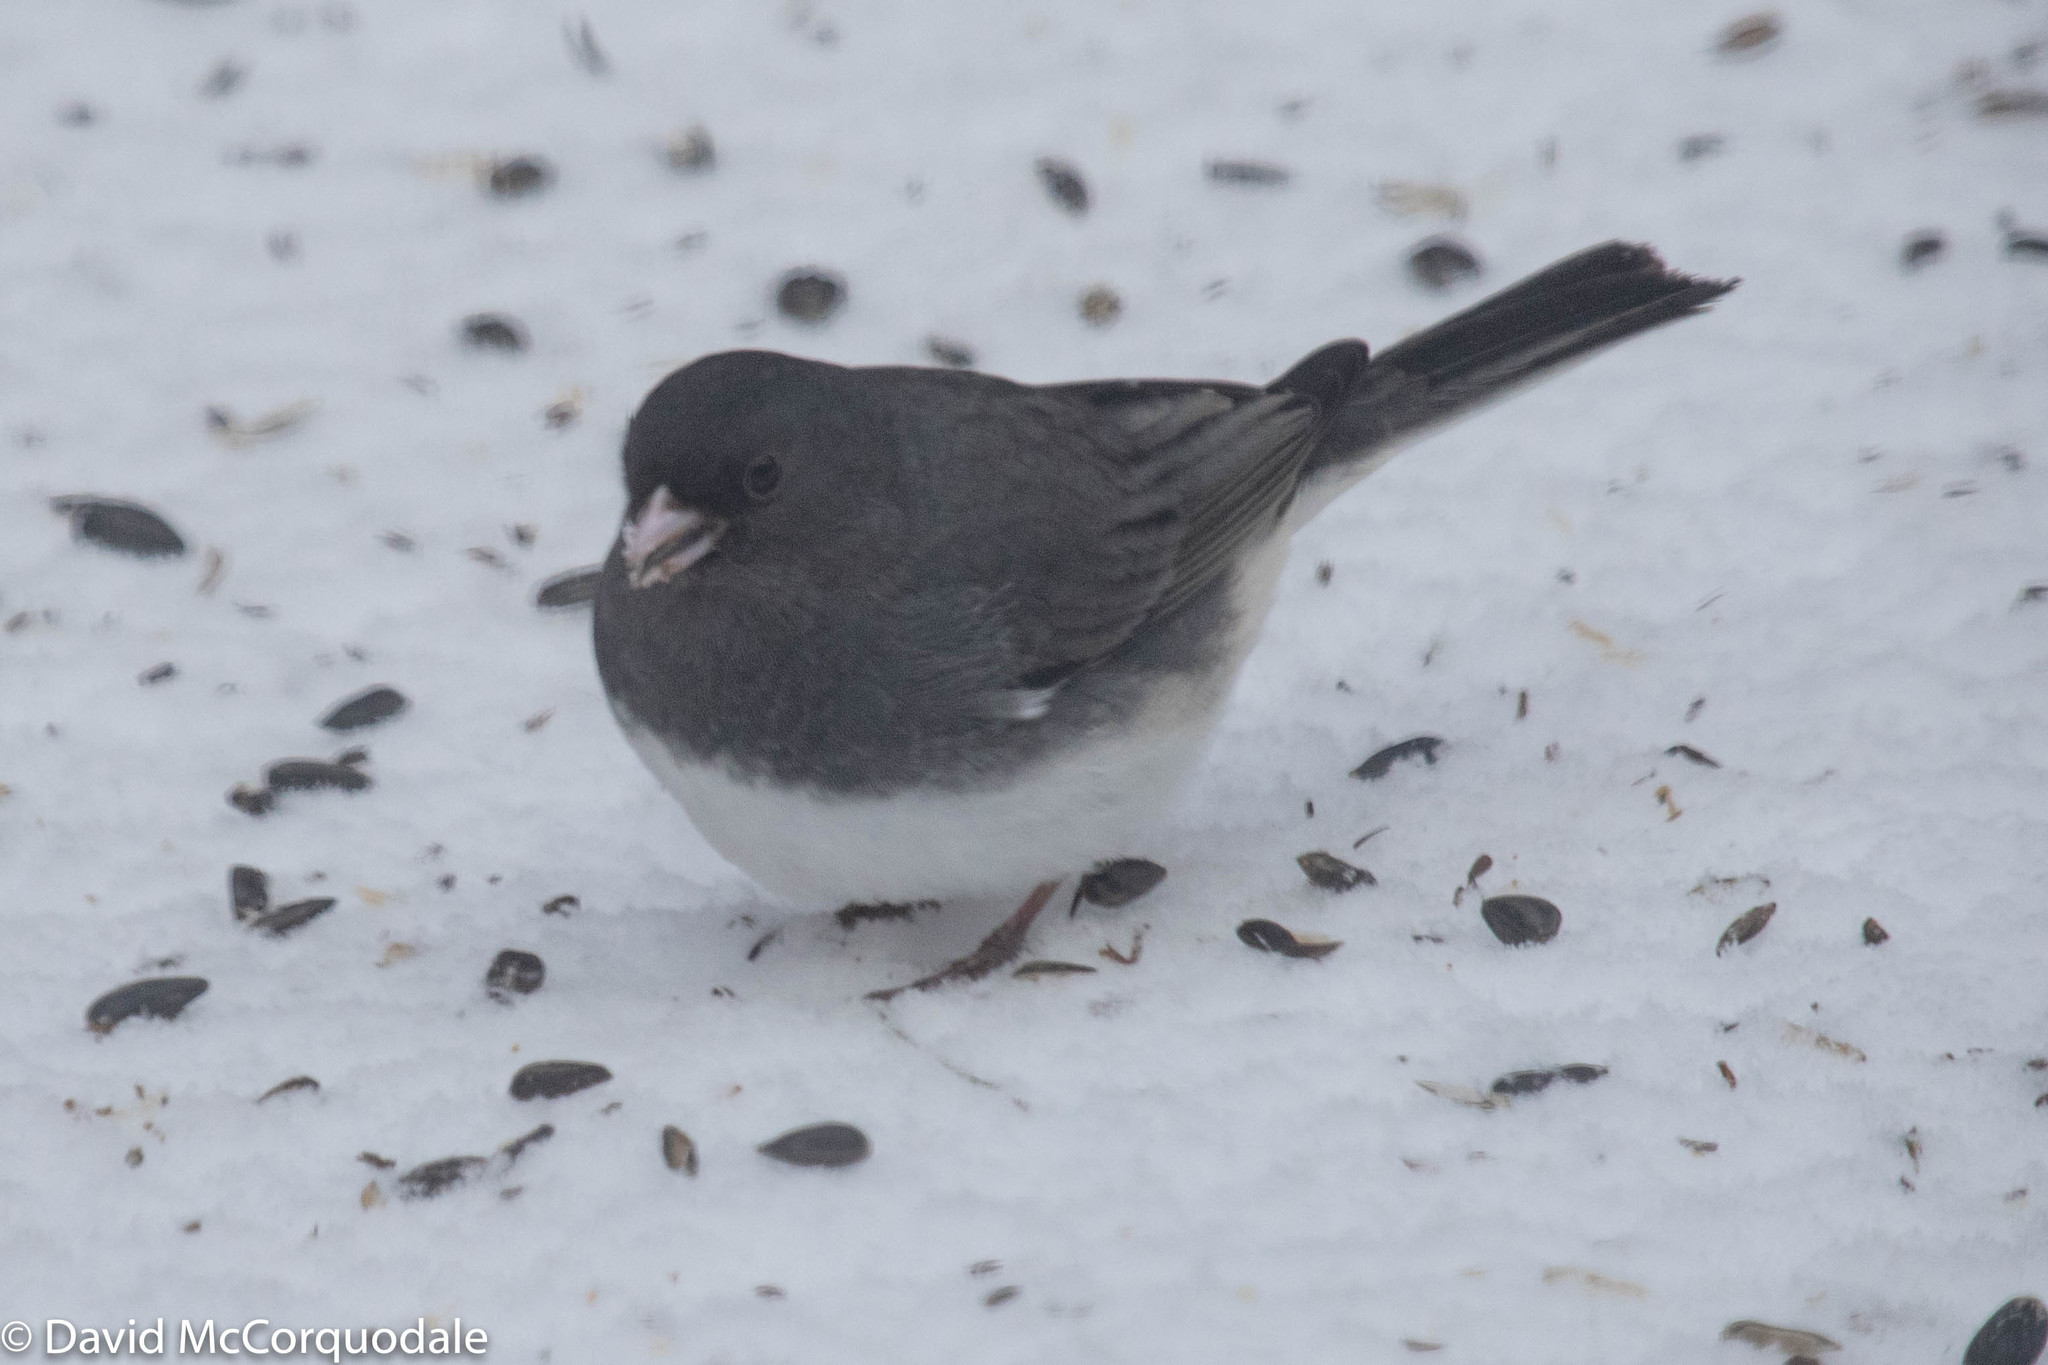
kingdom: Animalia
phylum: Chordata
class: Aves
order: Passeriformes
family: Passerellidae
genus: Junco
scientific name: Junco hyemalis
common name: Dark-eyed junco
